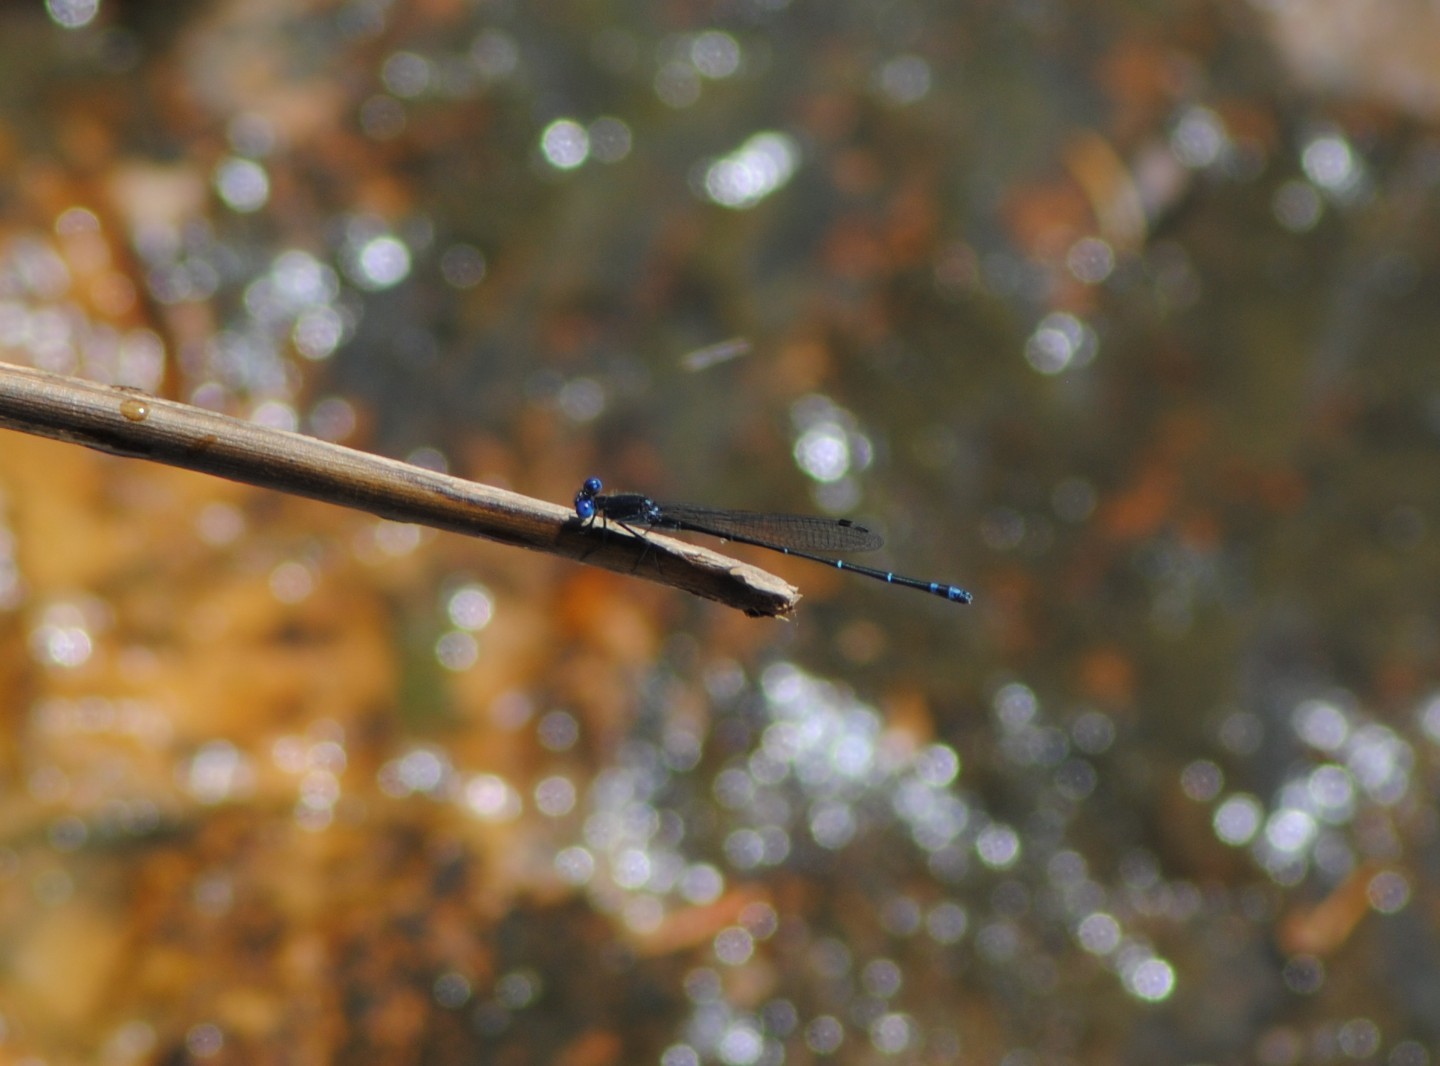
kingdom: Animalia
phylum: Arthropoda
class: Insecta
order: Odonata
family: Coenagrionidae
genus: Argia
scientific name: Argia translata
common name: Dusky dancer
